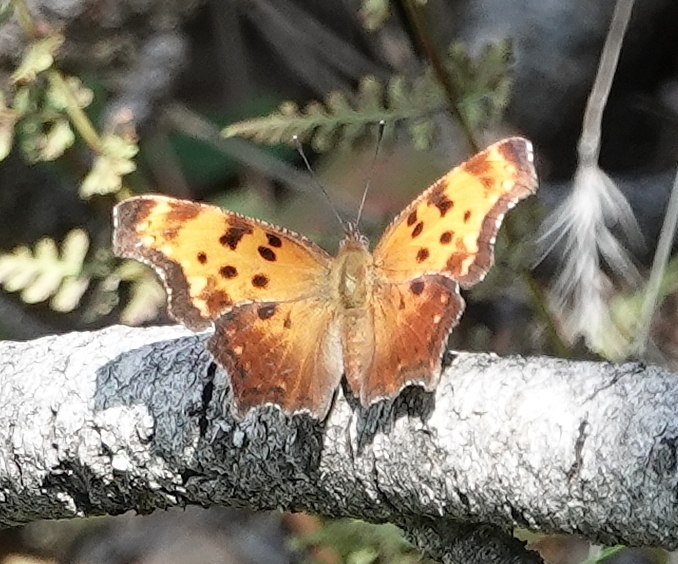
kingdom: Animalia
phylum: Arthropoda
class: Insecta
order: Lepidoptera
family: Nymphalidae
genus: Polygonia
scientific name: Polygonia progne
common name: Gray comma
